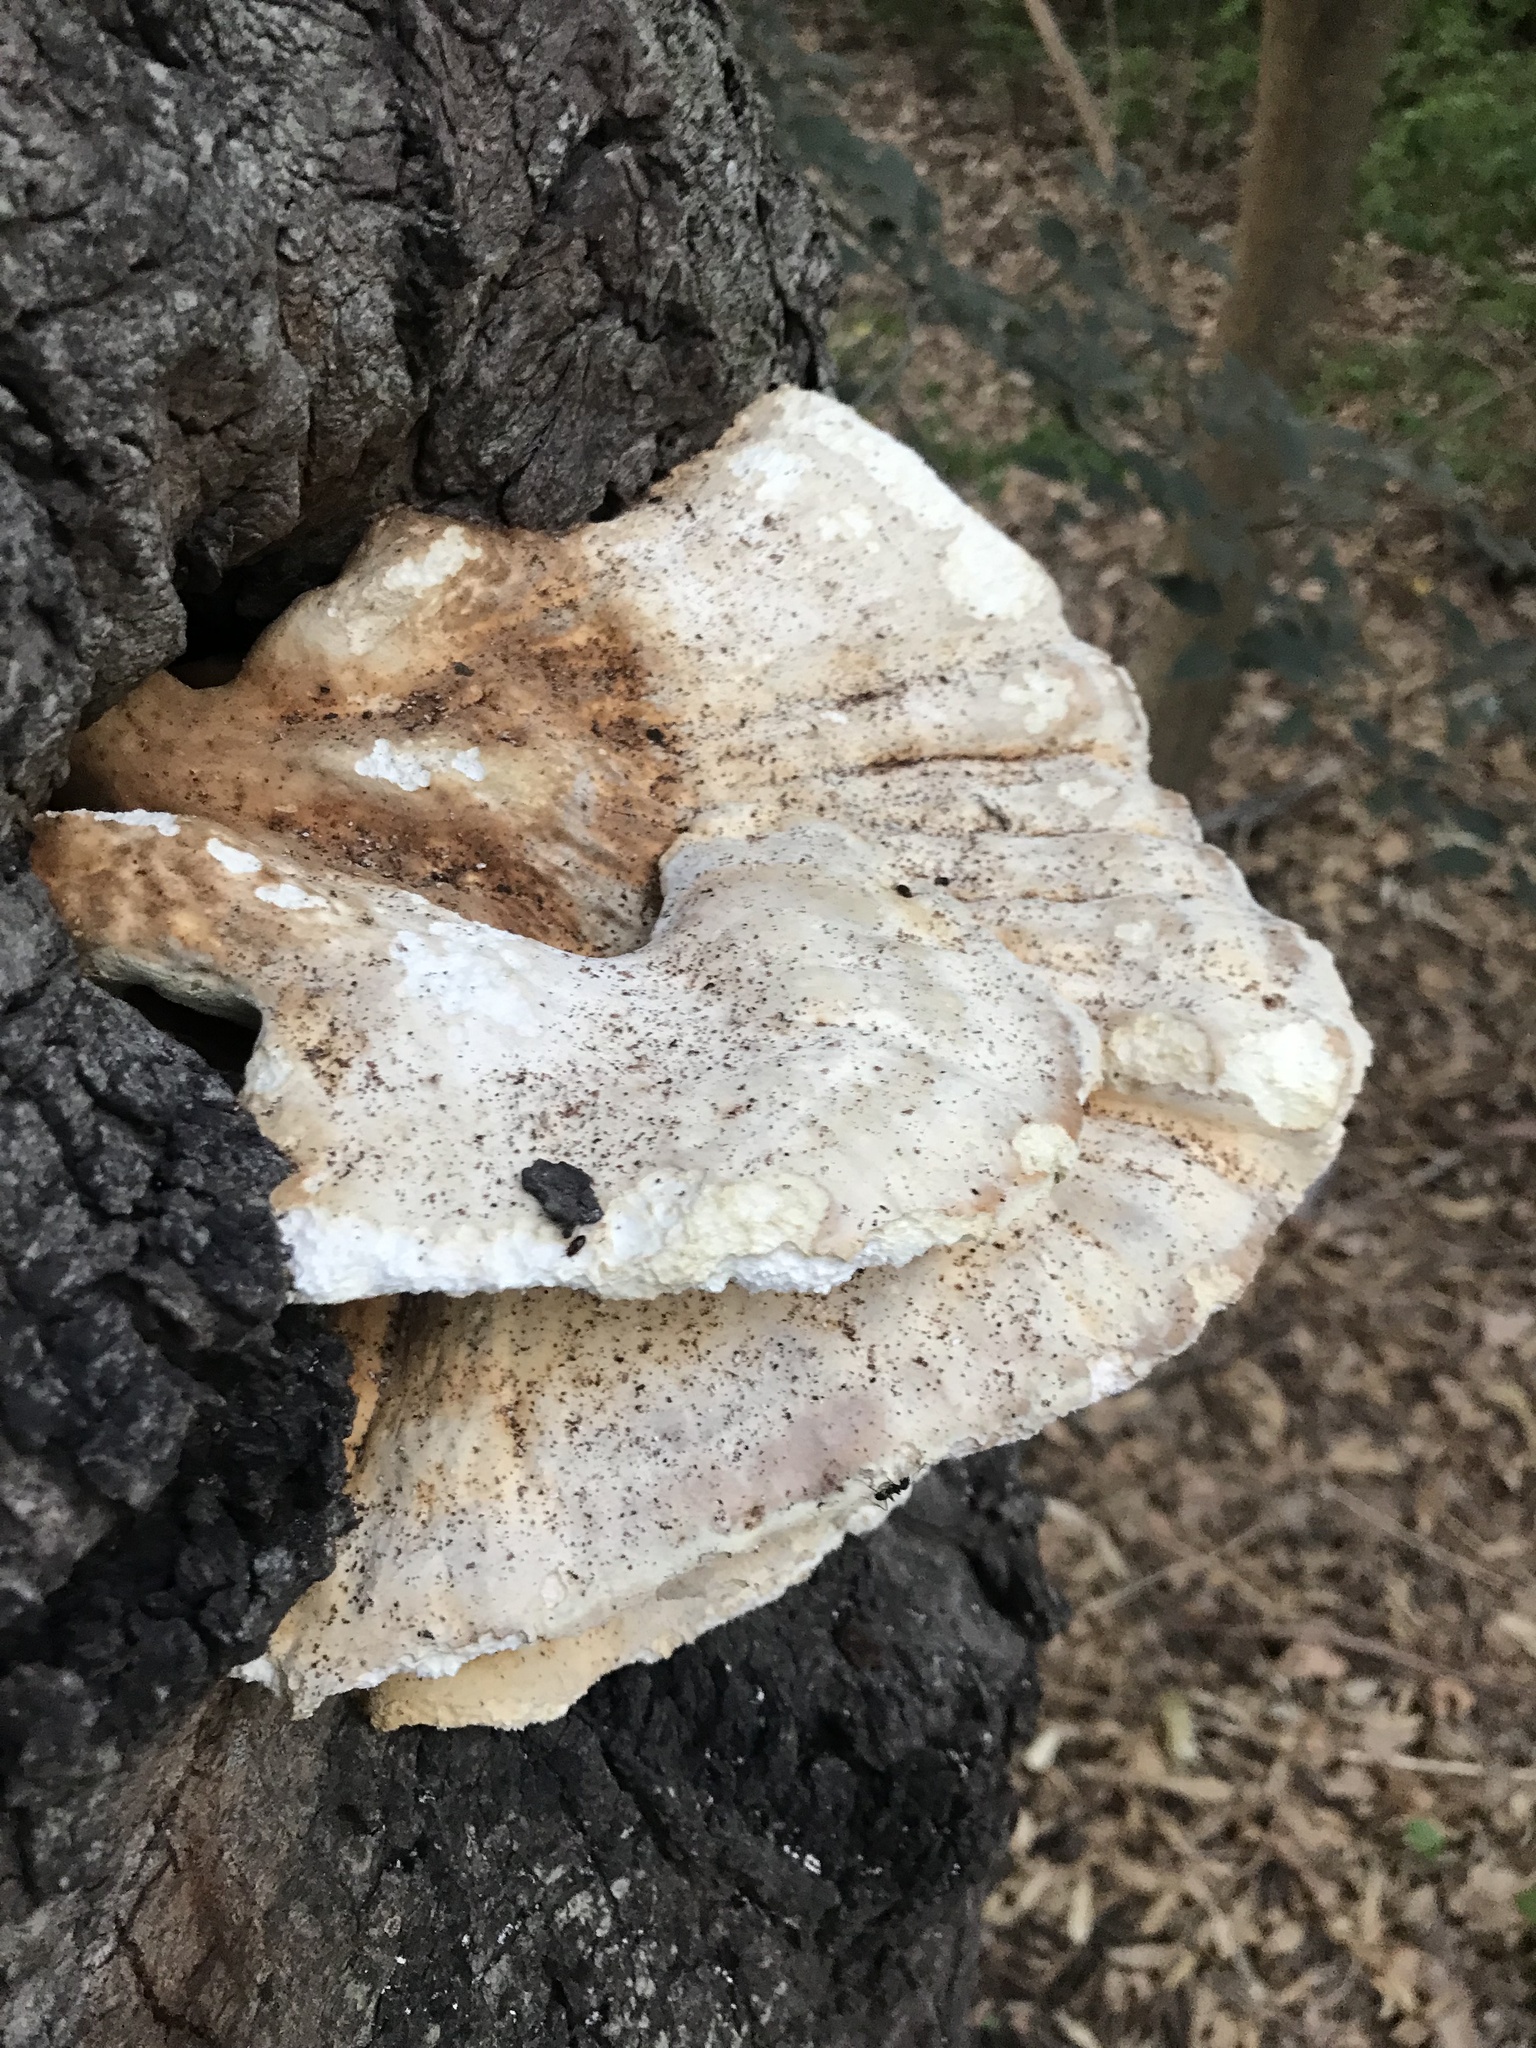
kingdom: Fungi
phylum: Basidiomycota
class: Agaricomycetes
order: Polyporales
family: Laetiporaceae
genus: Laetiporus
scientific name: Laetiporus sulphureus
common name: Chicken of the woods
